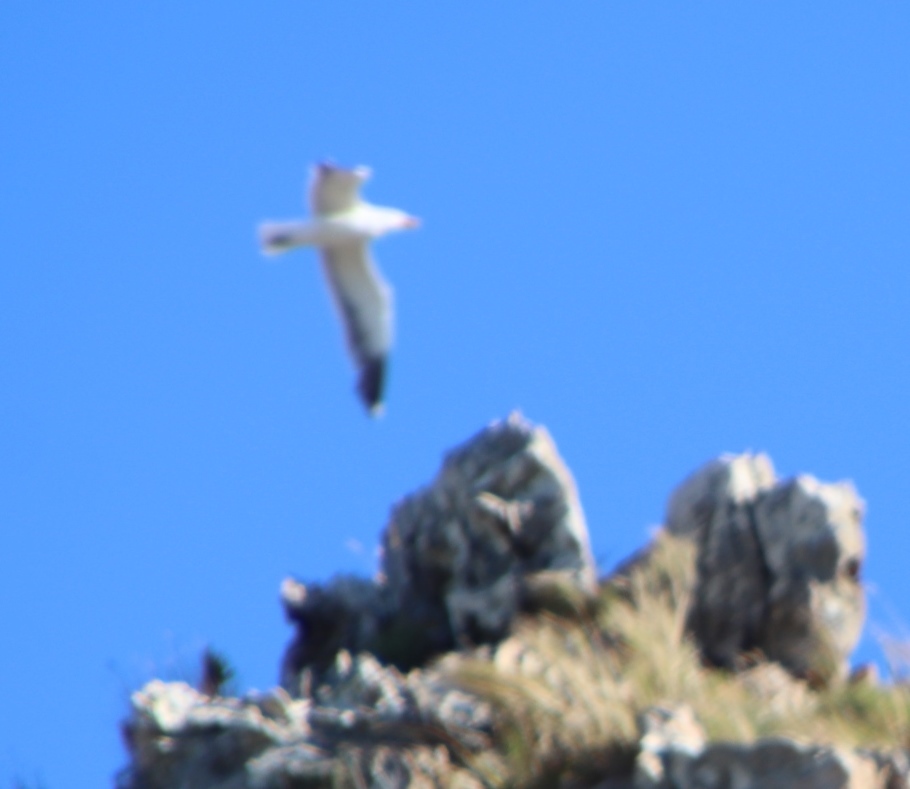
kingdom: Animalia
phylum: Chordata
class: Aves
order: Charadriiformes
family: Laridae
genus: Larus
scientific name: Larus dominicanus
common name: Kelp gull
